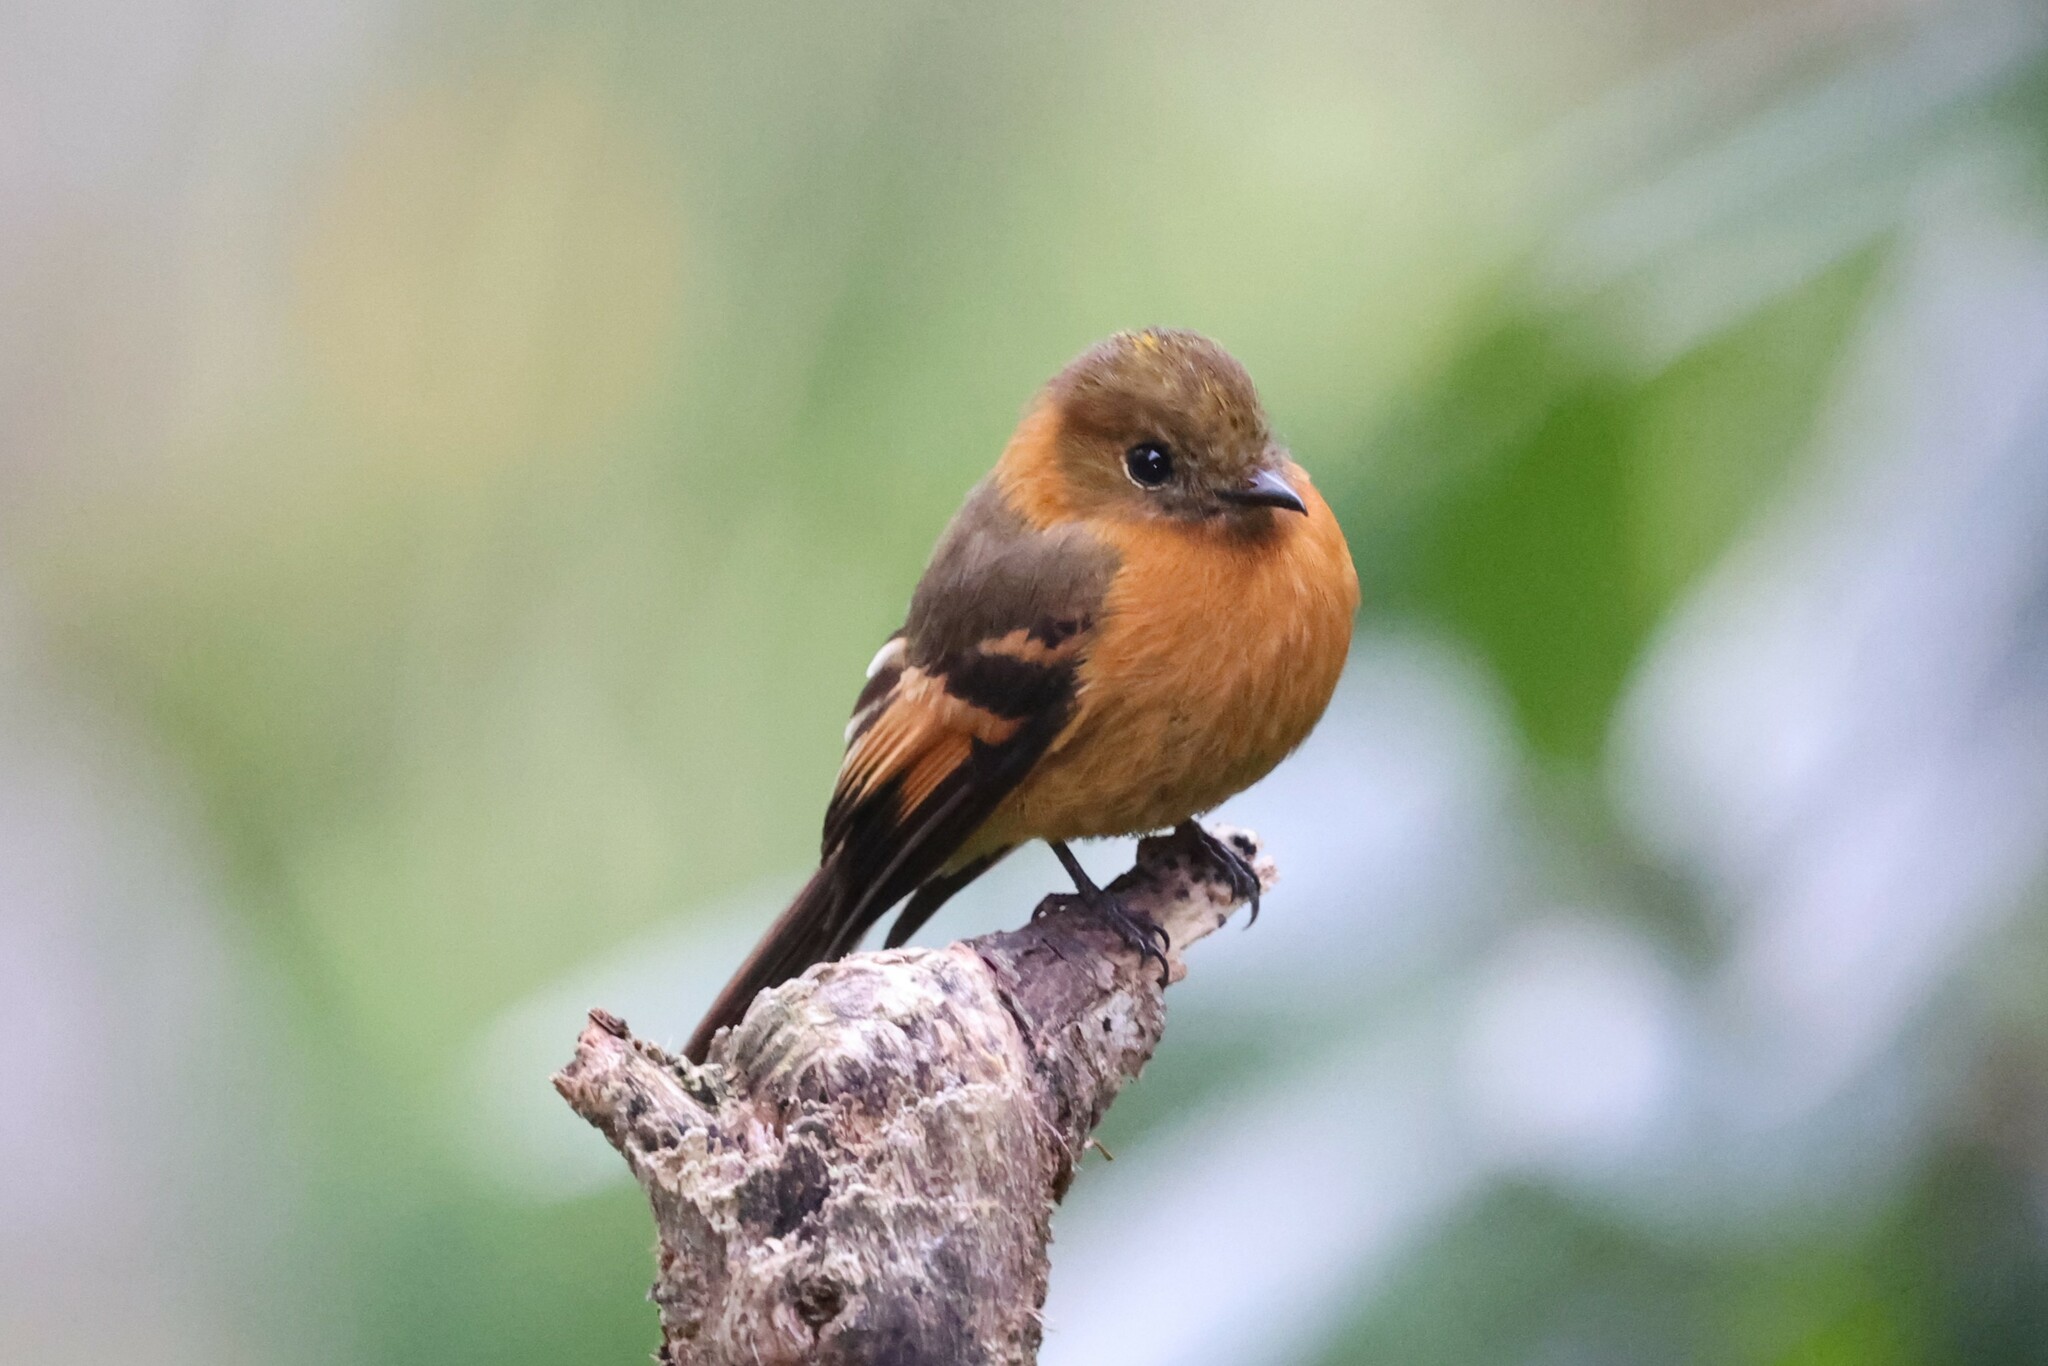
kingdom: Animalia
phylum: Chordata
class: Aves
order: Passeriformes
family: Tyrannidae
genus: Pyrrhomyias
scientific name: Pyrrhomyias cinnamomeus
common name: Cinnamon flycatcher
